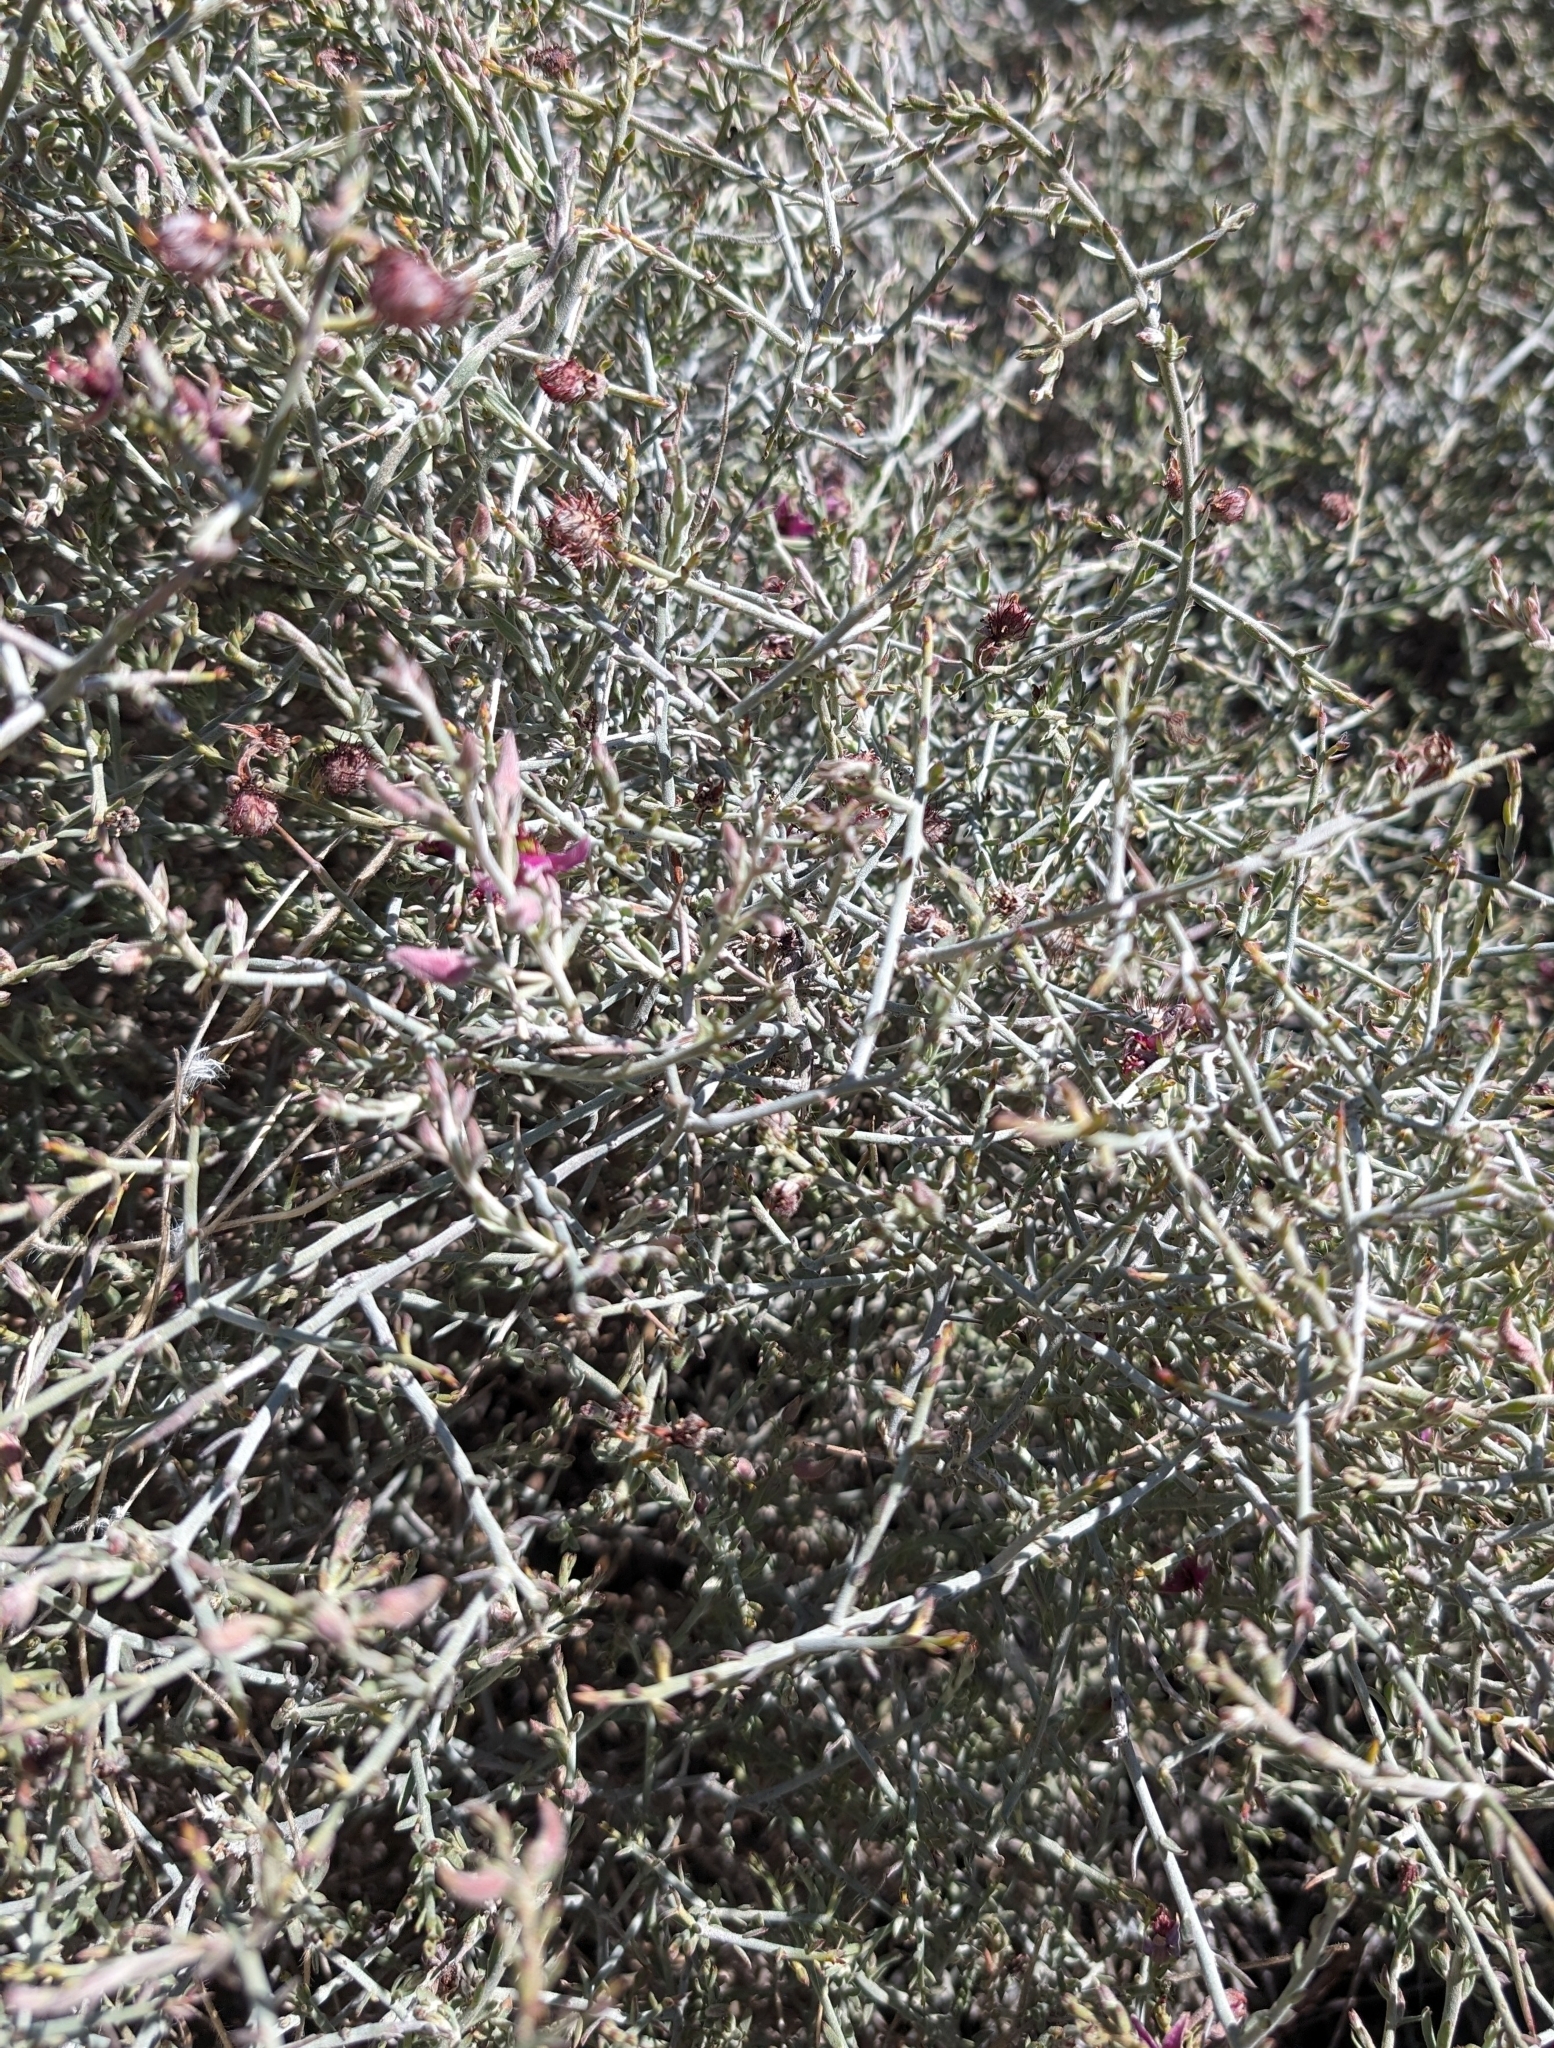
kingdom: Plantae
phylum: Tracheophyta
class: Magnoliopsida
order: Zygophyllales
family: Krameriaceae
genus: Krameria
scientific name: Krameria bicolor
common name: White ratany
